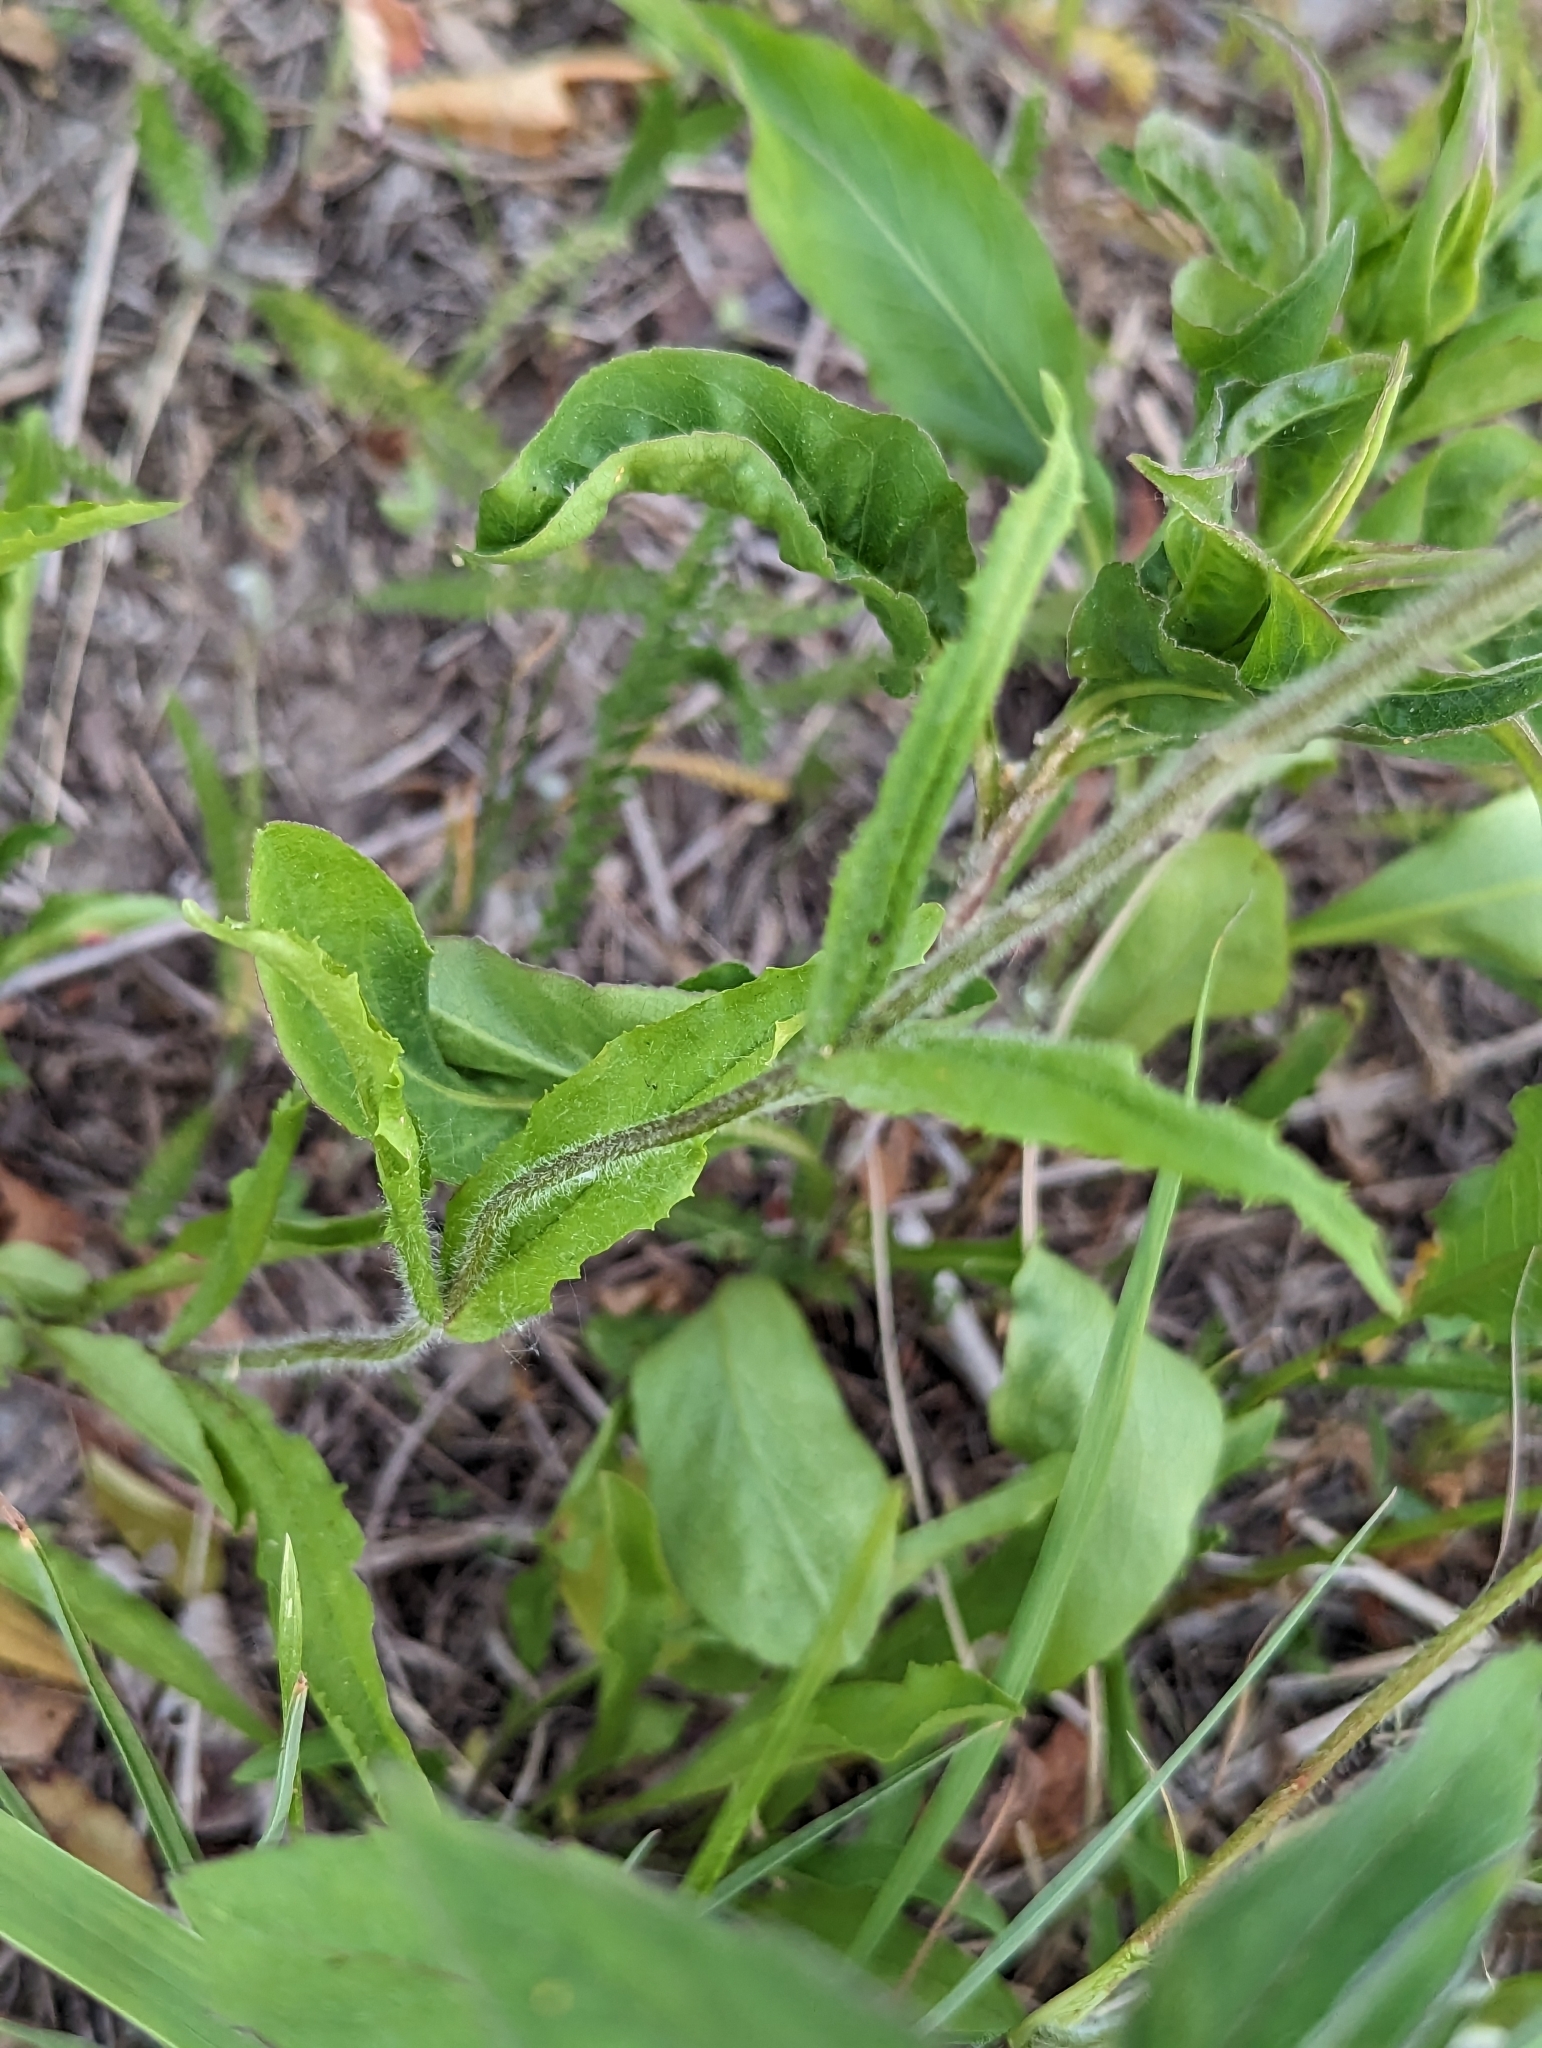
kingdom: Plantae
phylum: Tracheophyta
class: Magnoliopsida
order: Lamiales
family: Plantaginaceae
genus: Penstemon
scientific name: Penstemon hirsutus
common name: Hairy beardtongue
